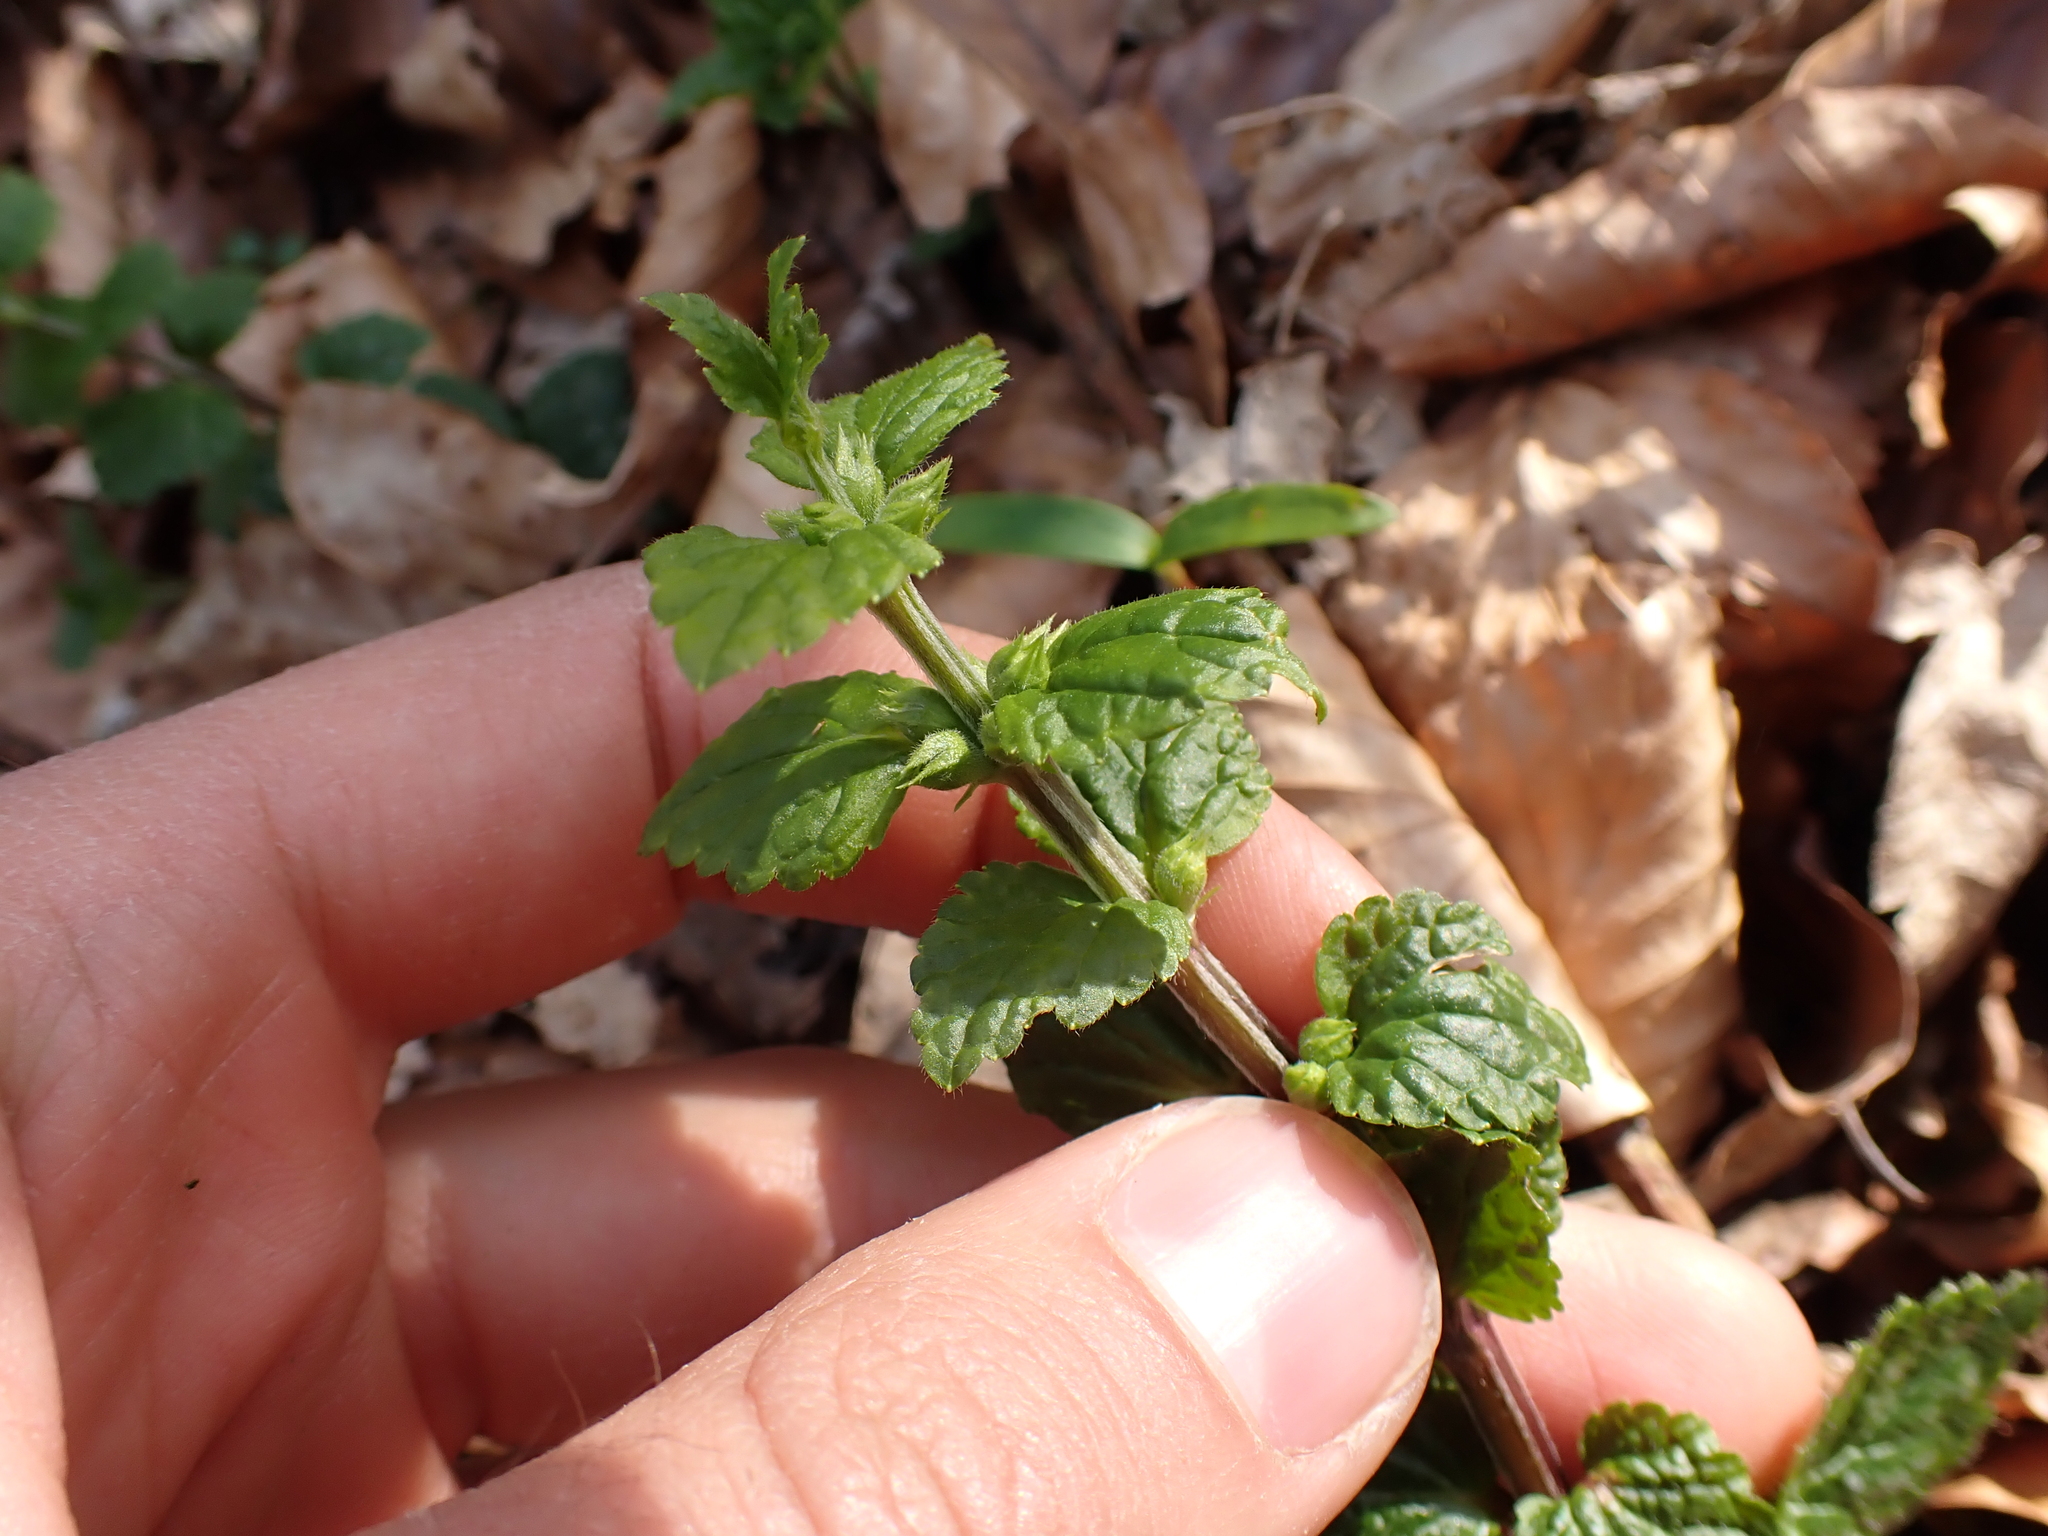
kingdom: Plantae
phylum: Tracheophyta
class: Magnoliopsida
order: Lamiales
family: Lamiaceae
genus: Lamium
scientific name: Lamium galeobdolon
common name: Yellow archangel
